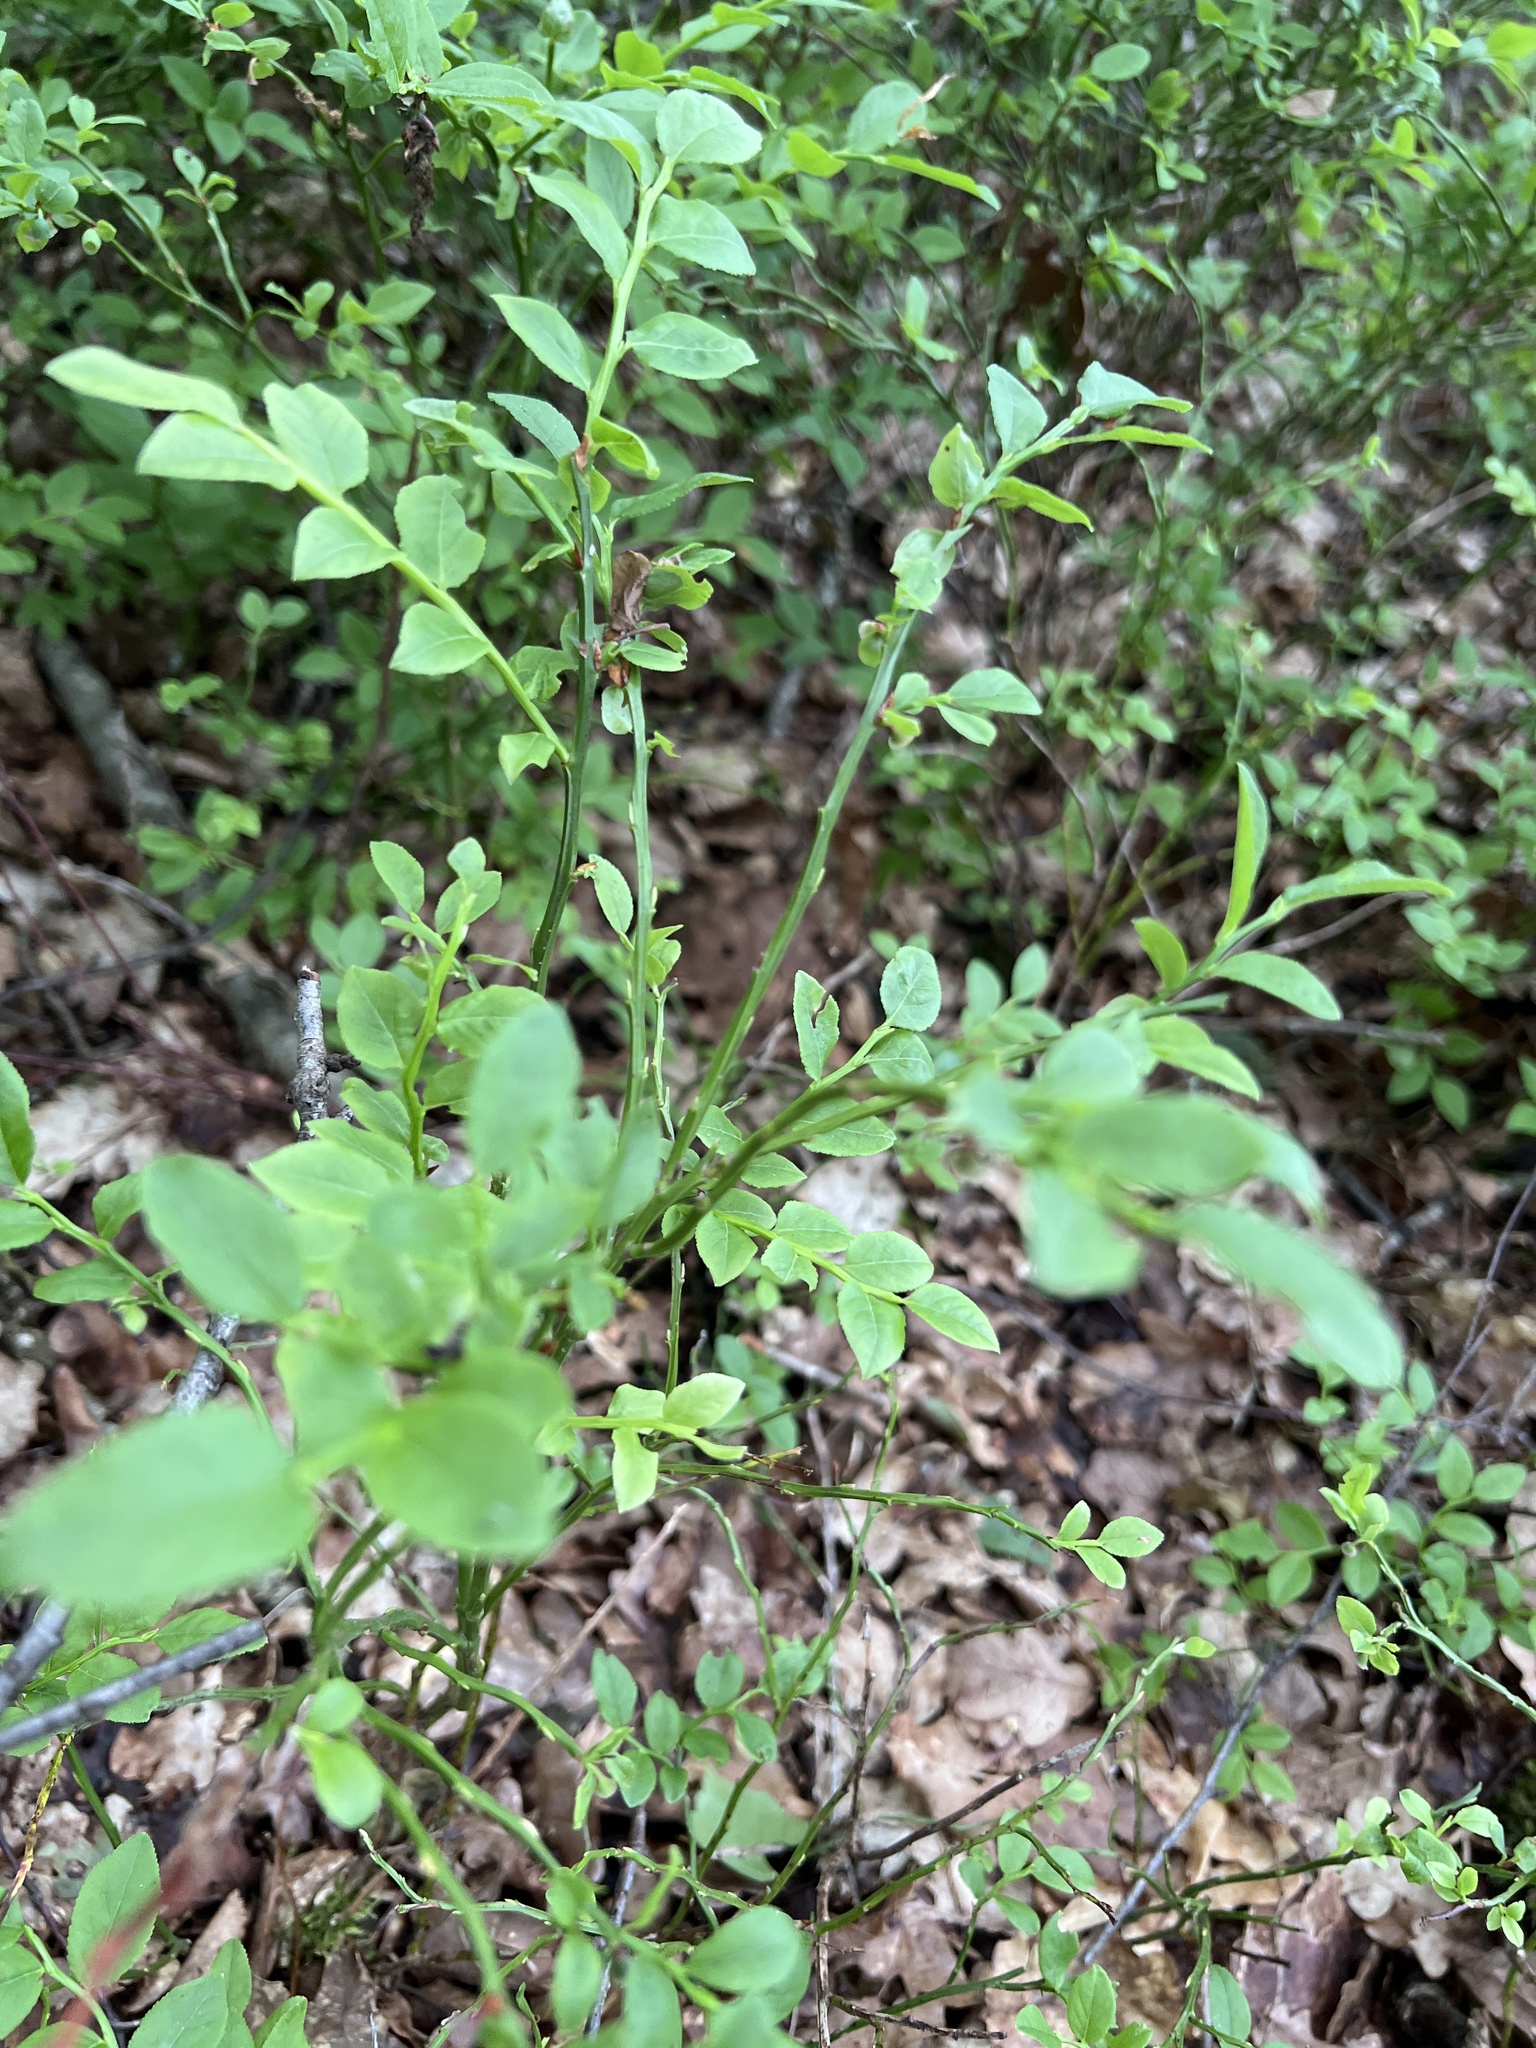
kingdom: Plantae
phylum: Tracheophyta
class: Magnoliopsida
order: Ericales
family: Ericaceae
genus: Vaccinium
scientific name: Vaccinium myrtillus
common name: Bilberry
